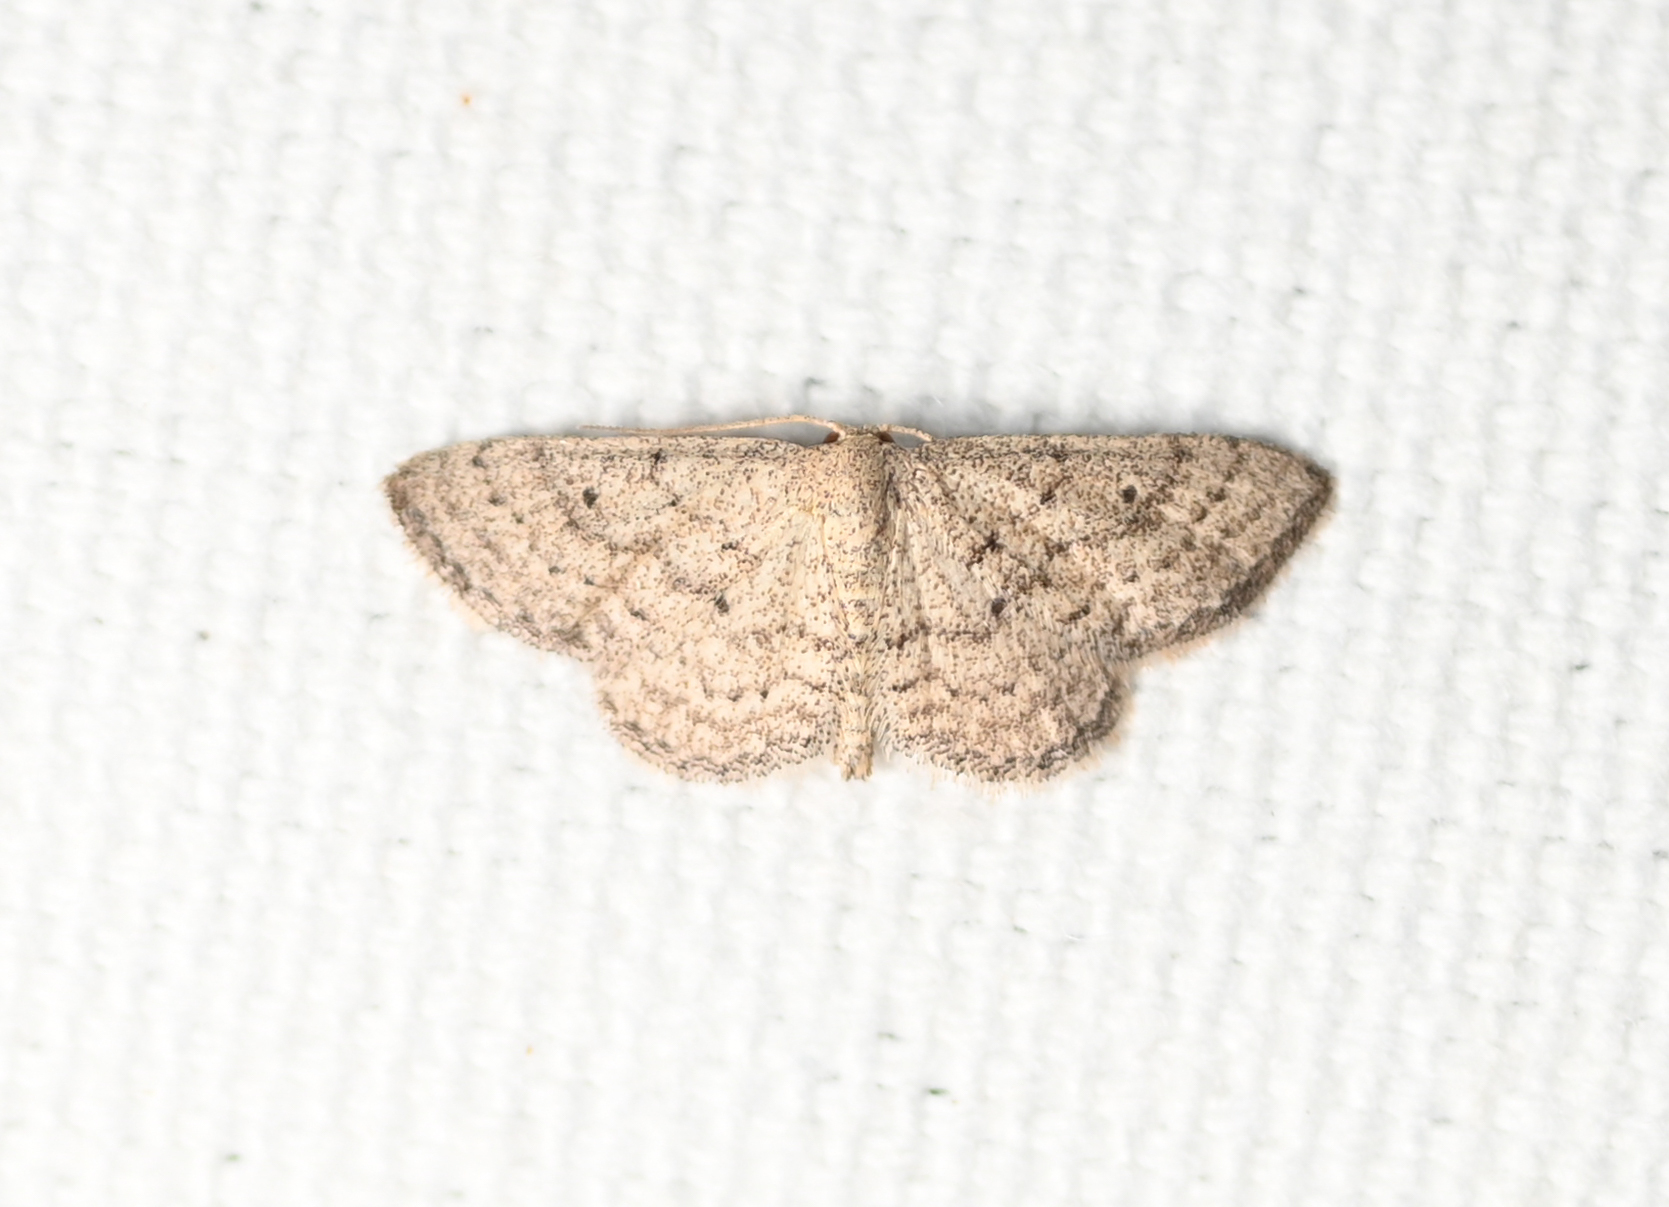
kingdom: Animalia
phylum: Arthropoda
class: Insecta
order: Lepidoptera
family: Geometridae
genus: Lobocleta
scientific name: Lobocleta ossularia
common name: Drab brown wave
